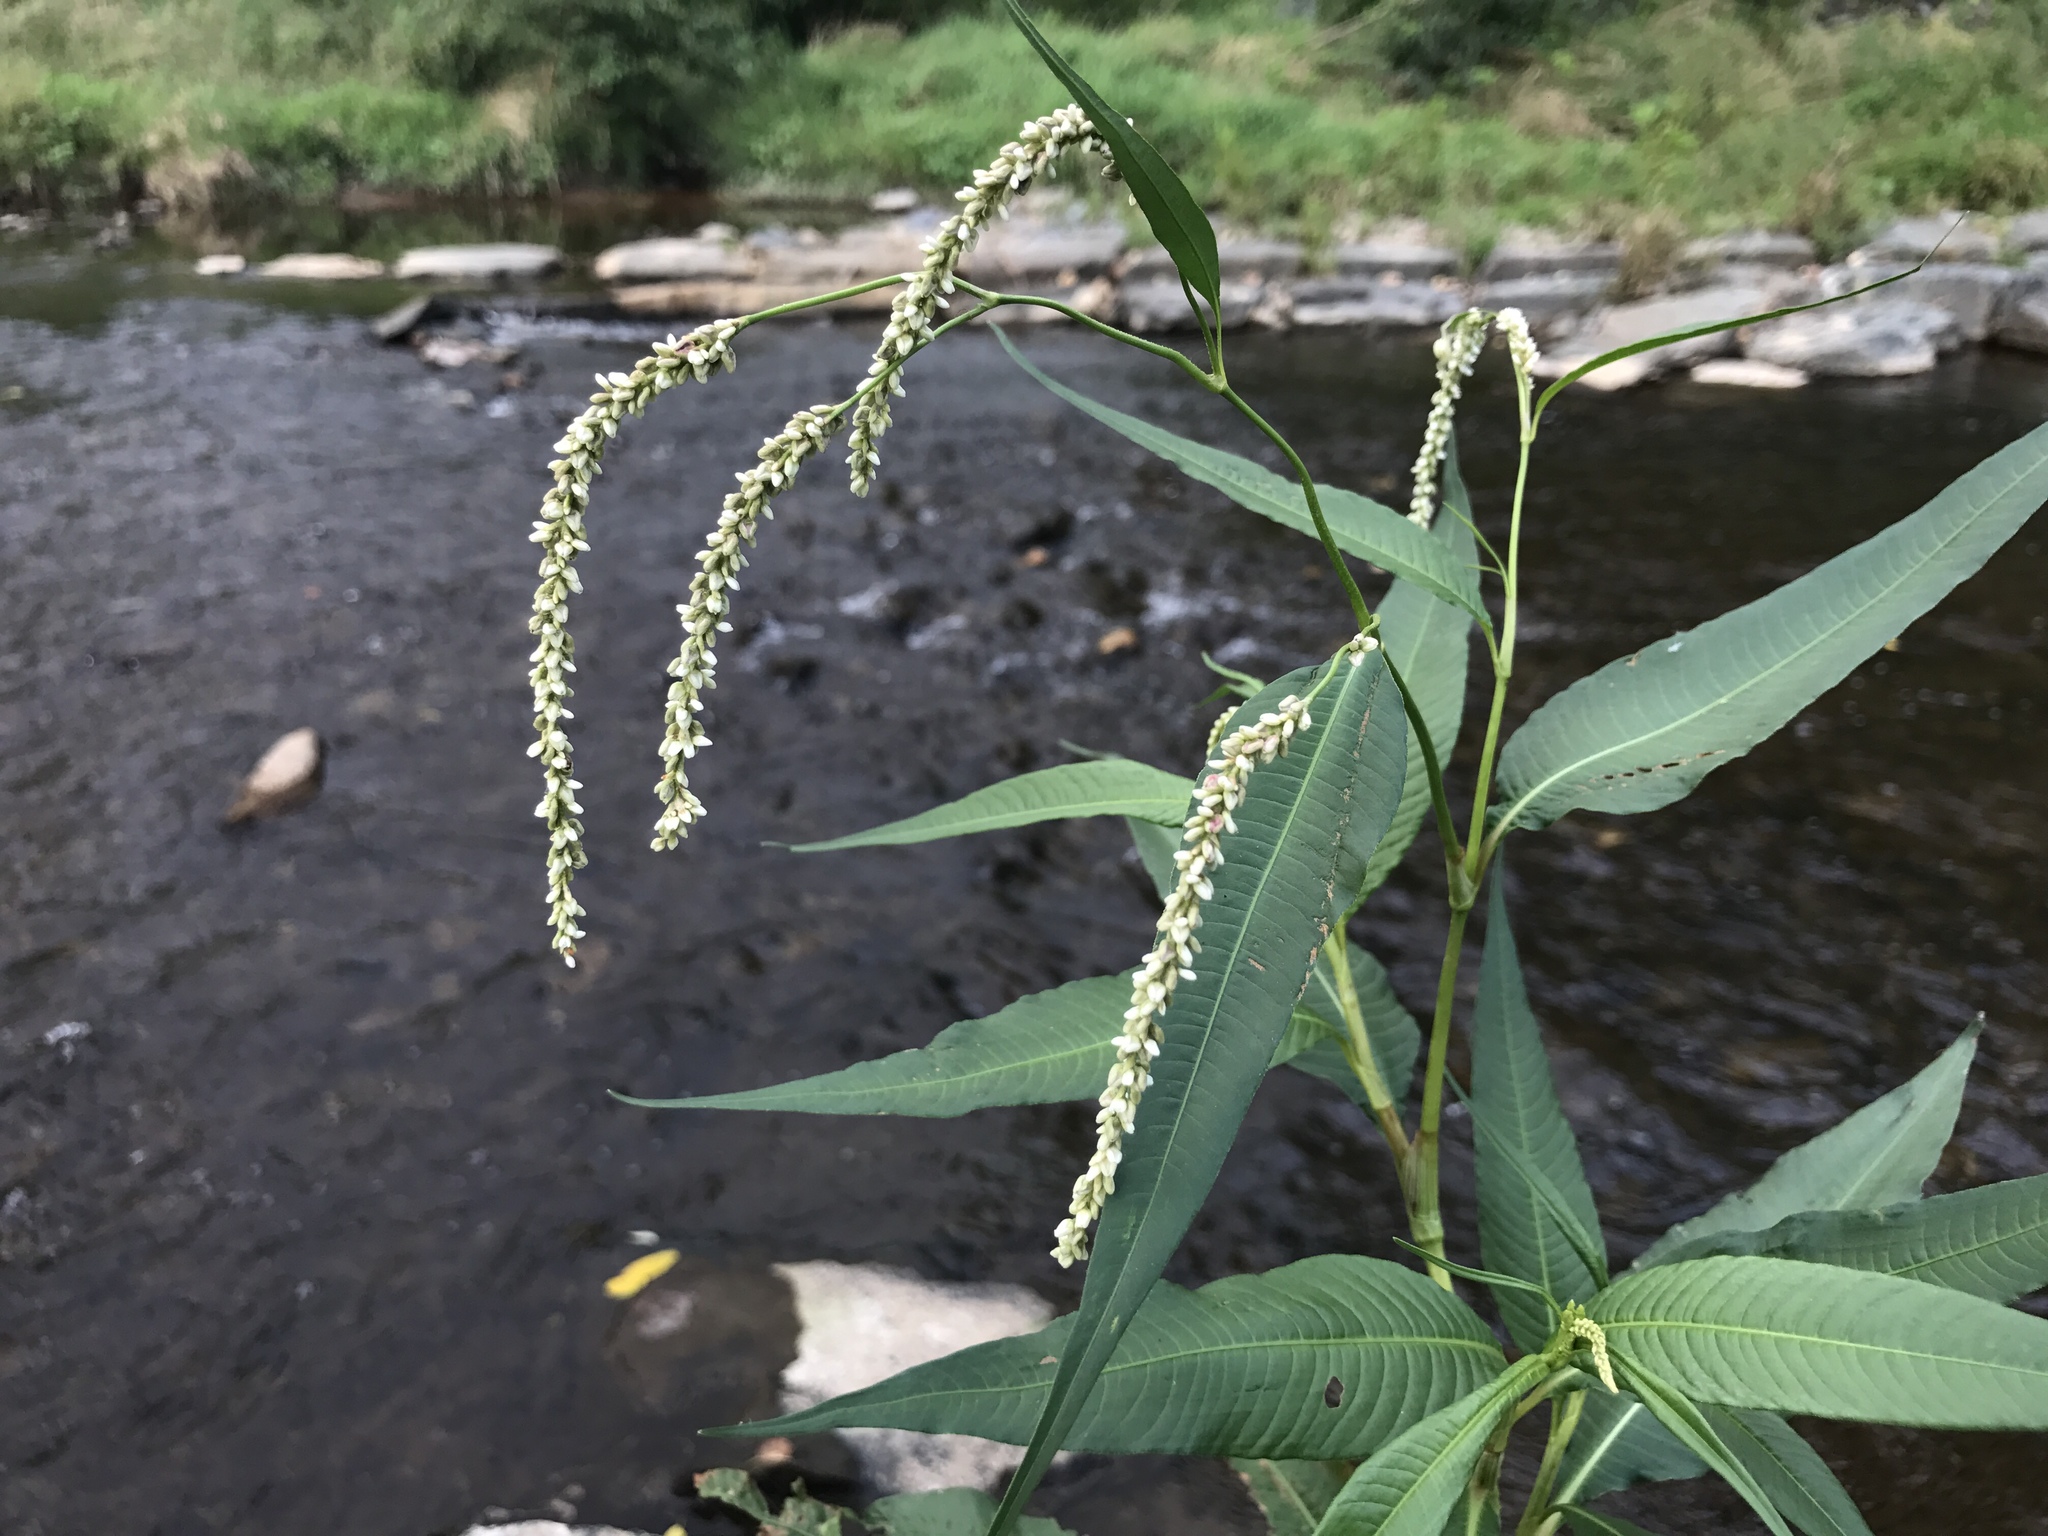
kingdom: Plantae
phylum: Tracheophyta
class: Magnoliopsida
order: Caryophyllales
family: Polygonaceae
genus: Persicaria
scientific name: Persicaria lapathifolia
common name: Curlytop knotweed
